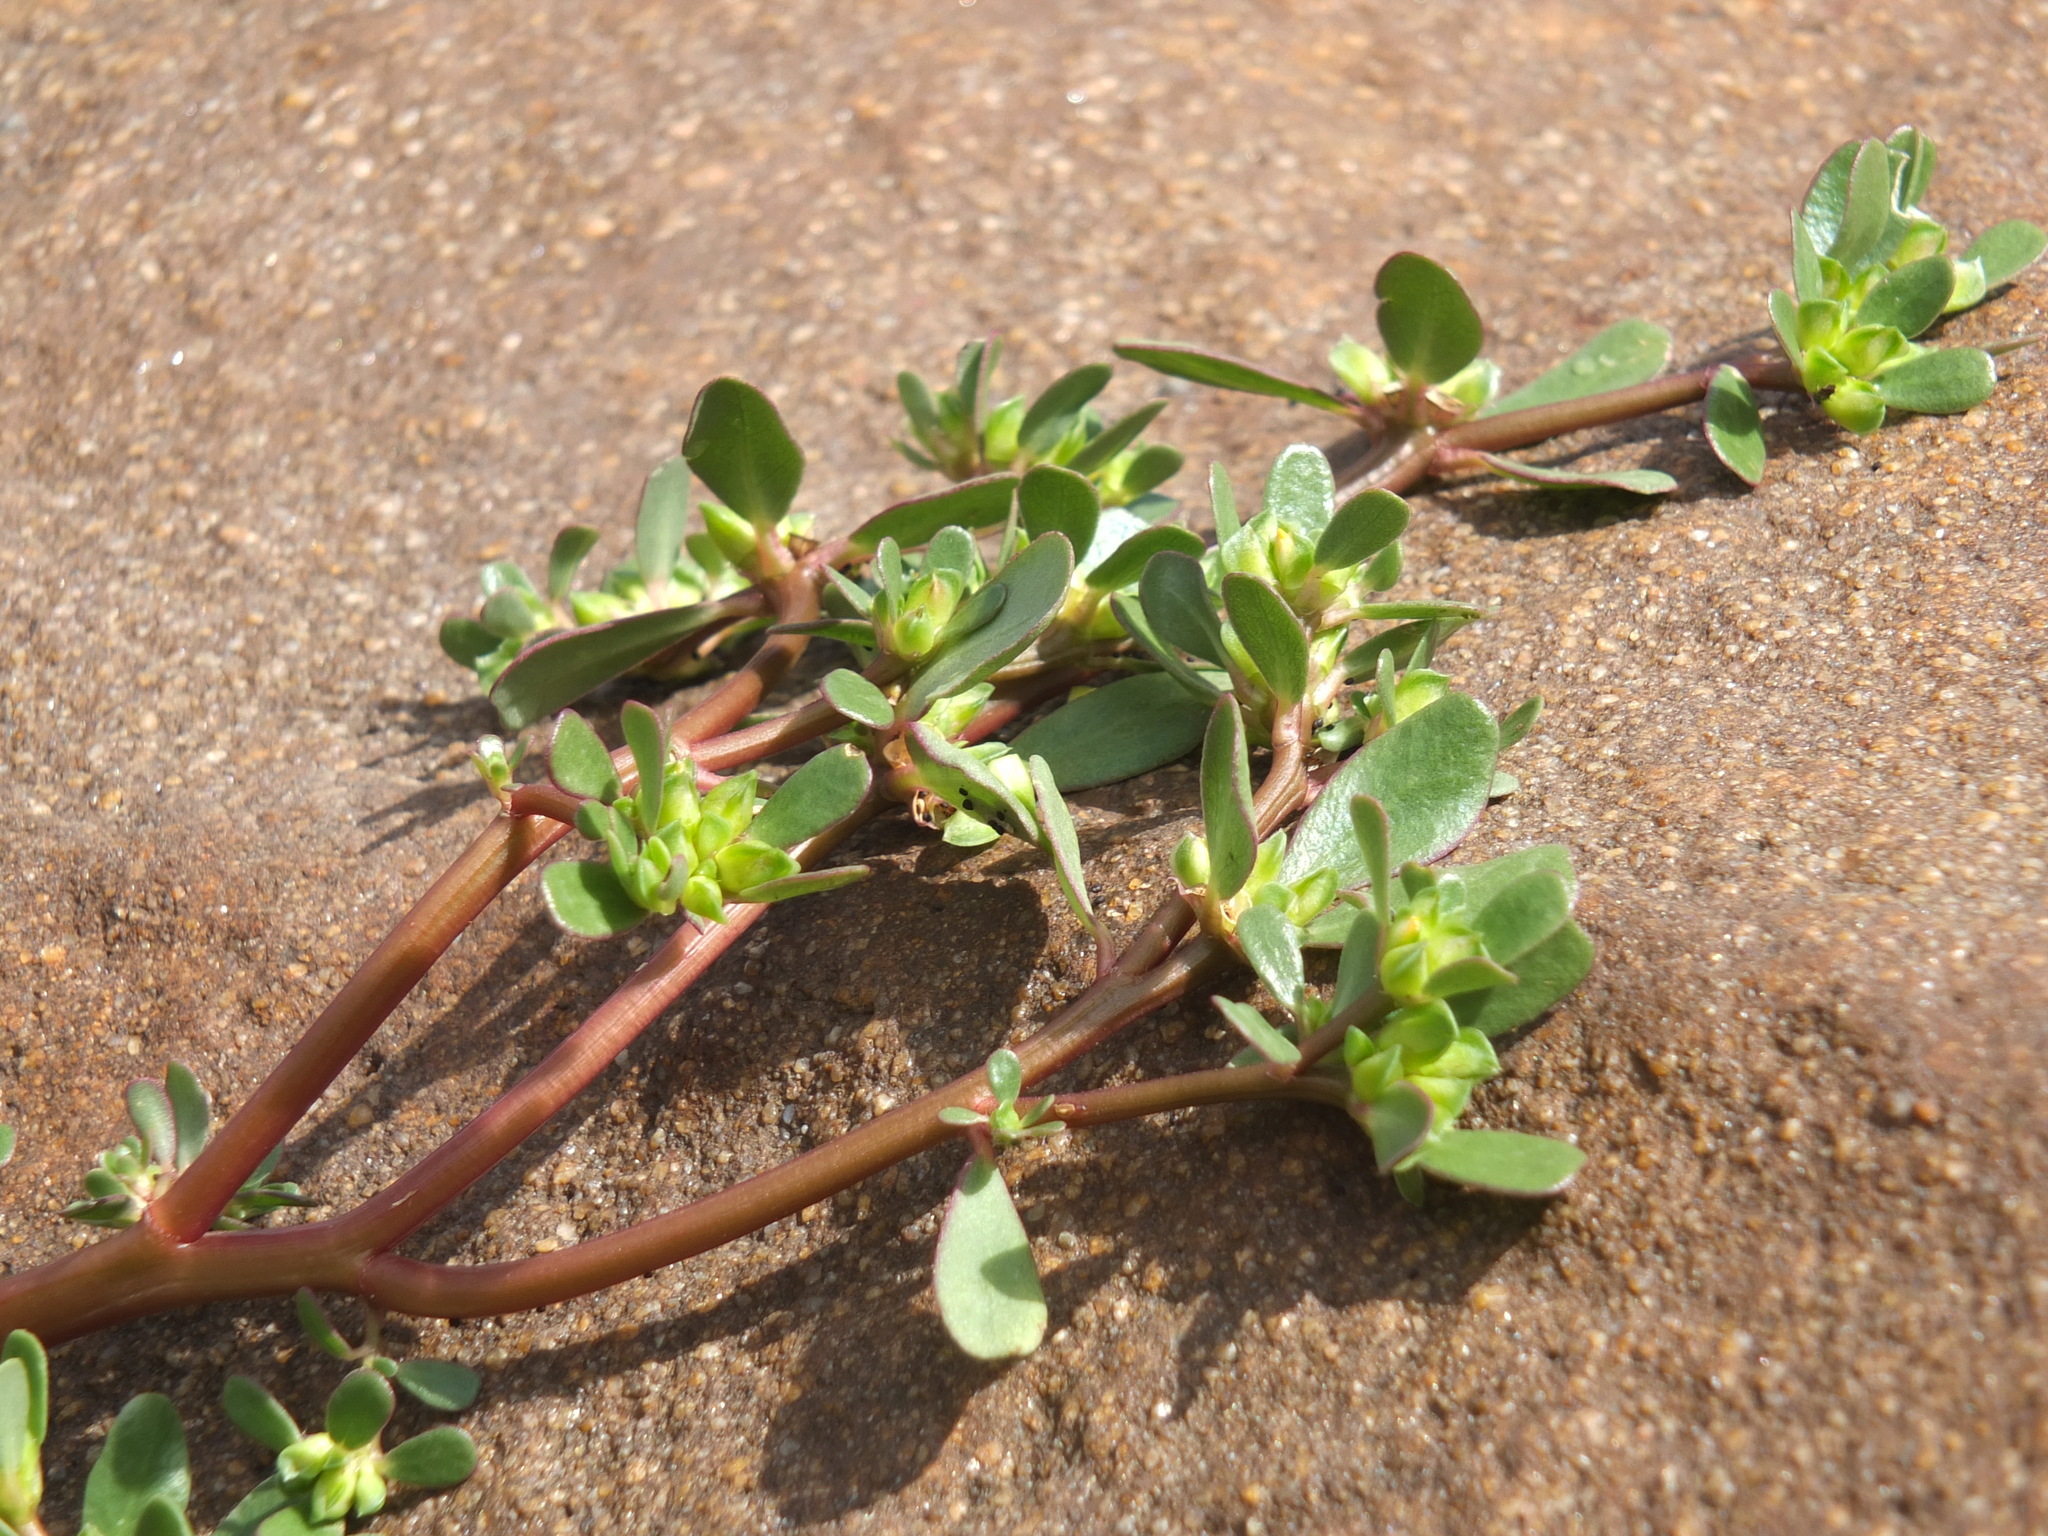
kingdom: Plantae
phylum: Tracheophyta
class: Magnoliopsida
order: Caryophyllales
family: Portulacaceae
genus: Portulaca
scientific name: Portulaca oleracea
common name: Common purslane
